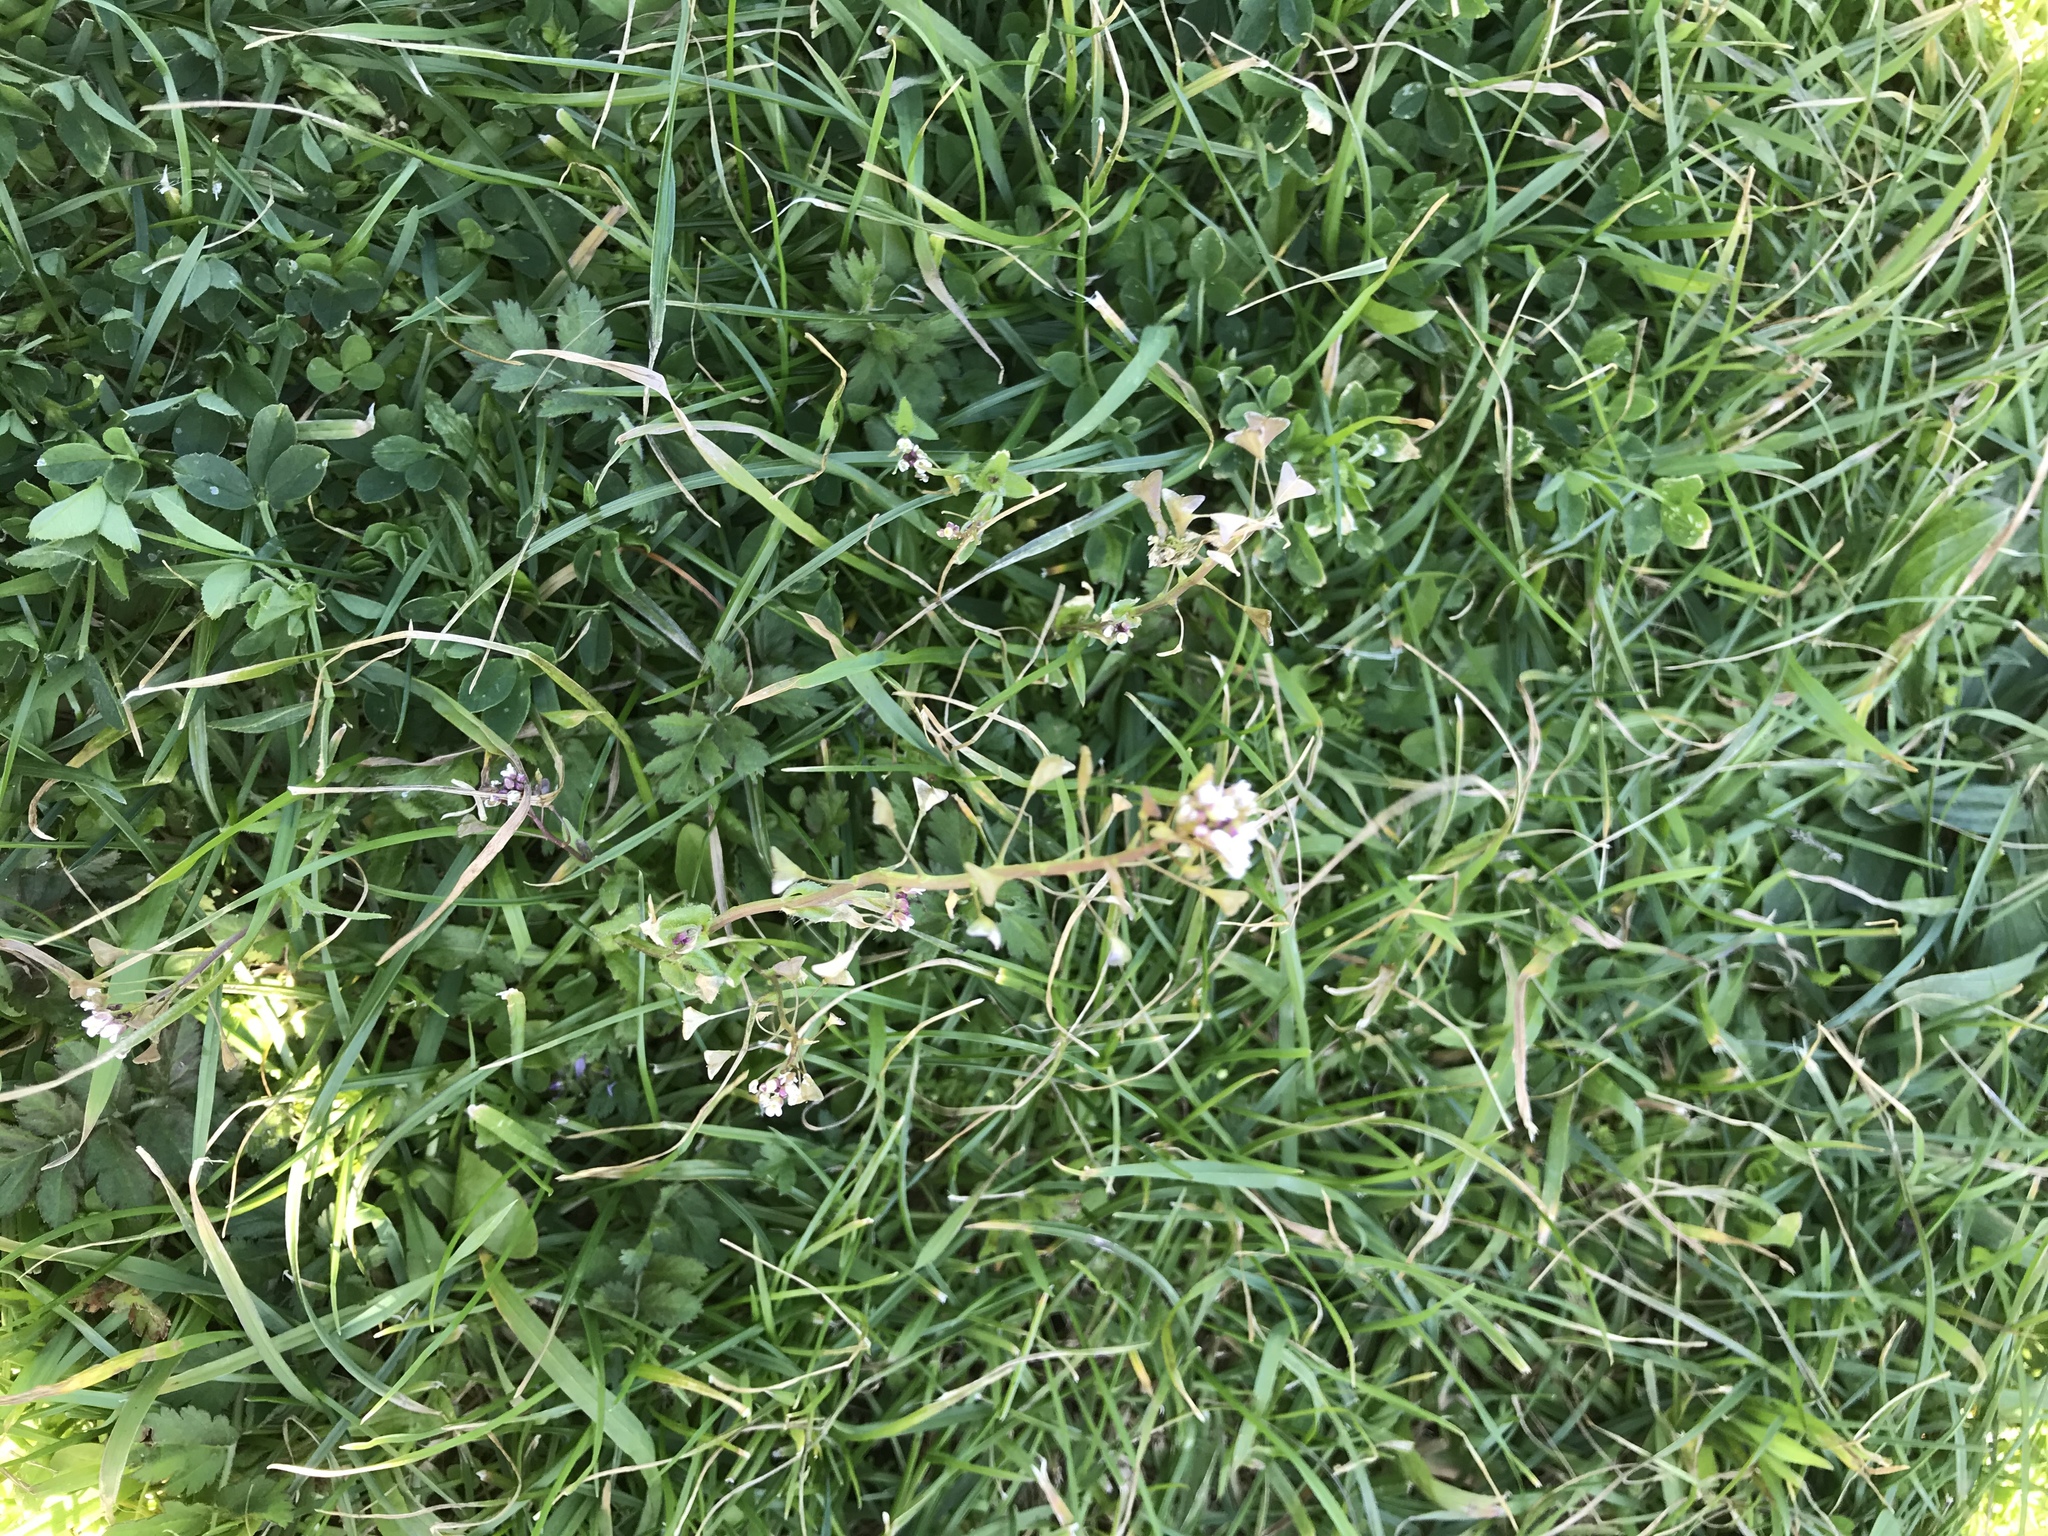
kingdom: Plantae
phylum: Tracheophyta
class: Magnoliopsida
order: Brassicales
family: Brassicaceae
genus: Capsella
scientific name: Capsella bursa-pastoris
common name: Shepherd's purse
